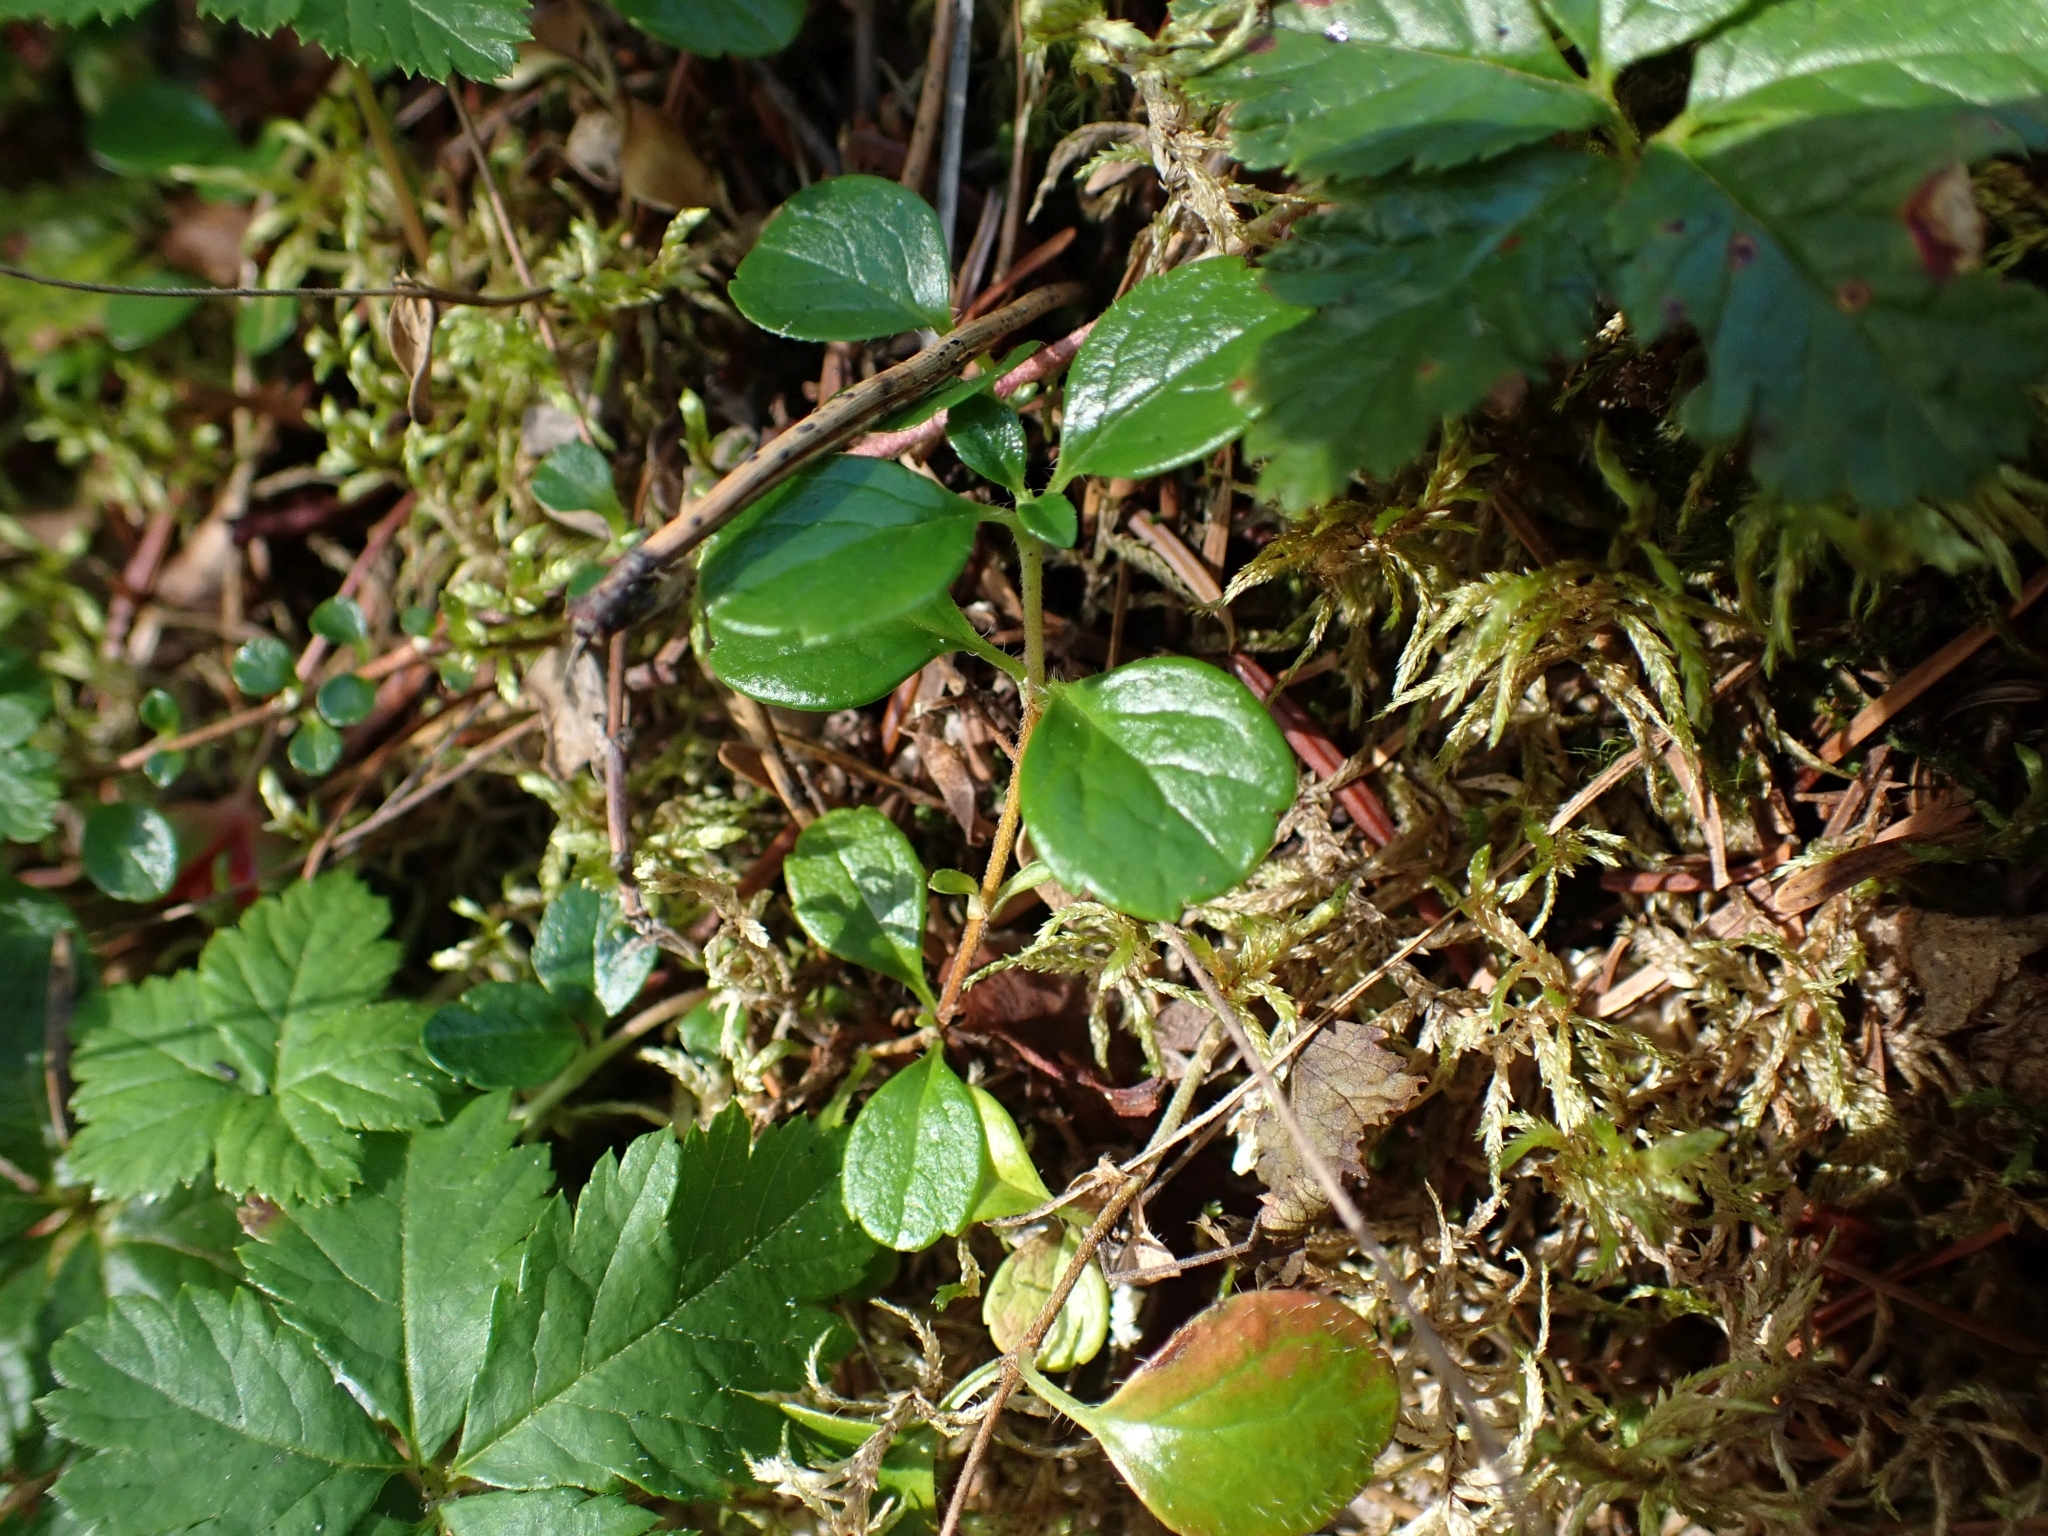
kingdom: Plantae
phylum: Tracheophyta
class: Magnoliopsida
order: Dipsacales
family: Caprifoliaceae
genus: Linnaea
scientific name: Linnaea borealis
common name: Twinflower
